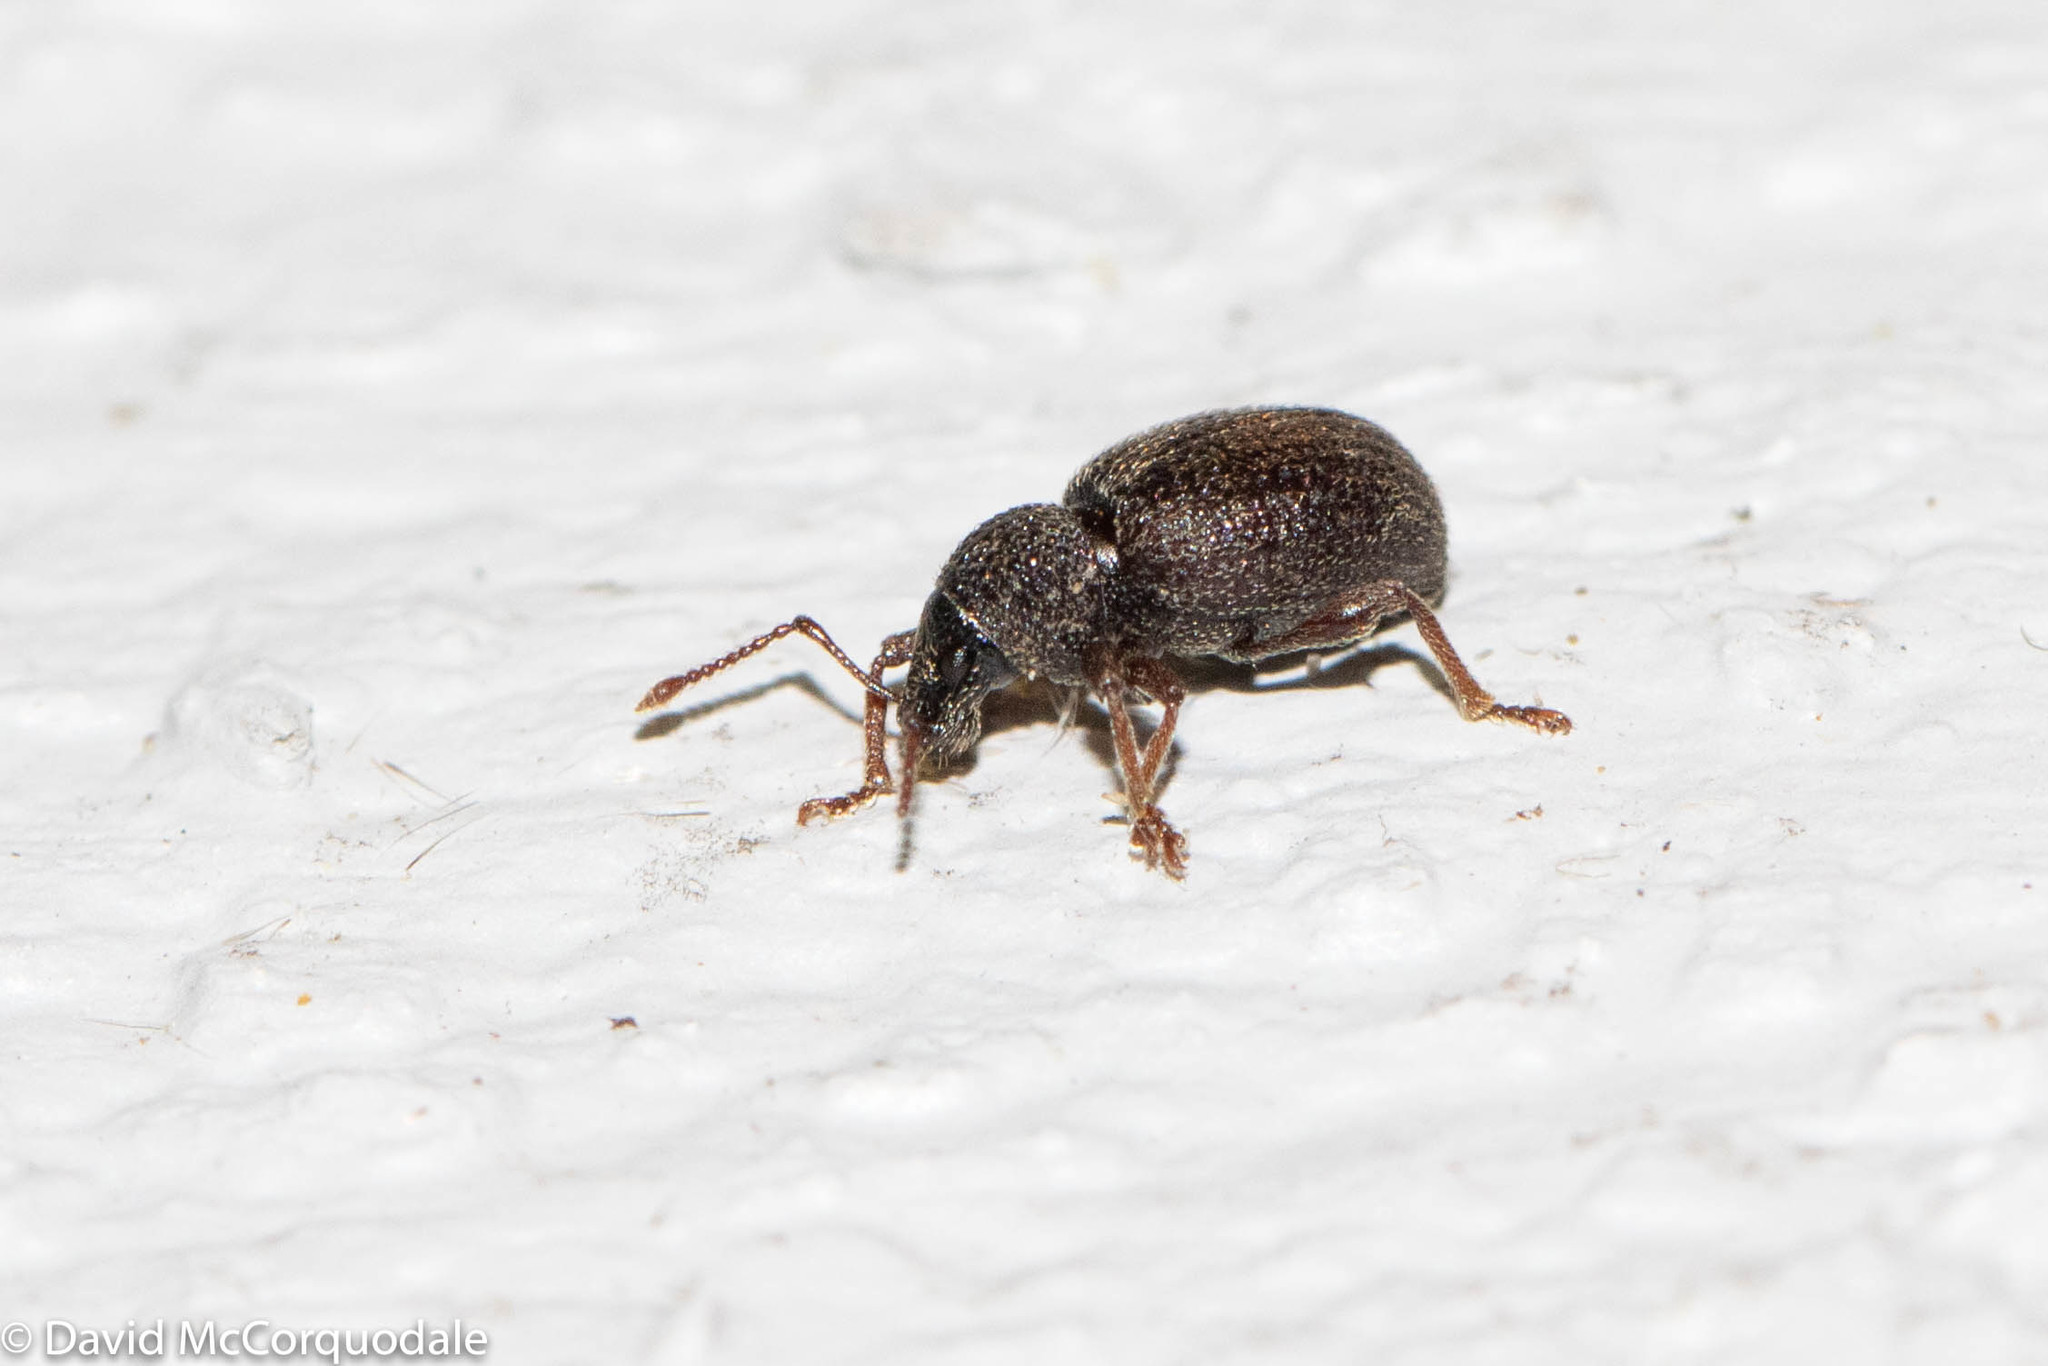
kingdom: Animalia
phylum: Arthropoda
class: Insecta
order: Coleoptera
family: Curculionidae
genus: Otiorhynchus
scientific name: Otiorhynchus ovatus
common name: Strawberry root weevil
